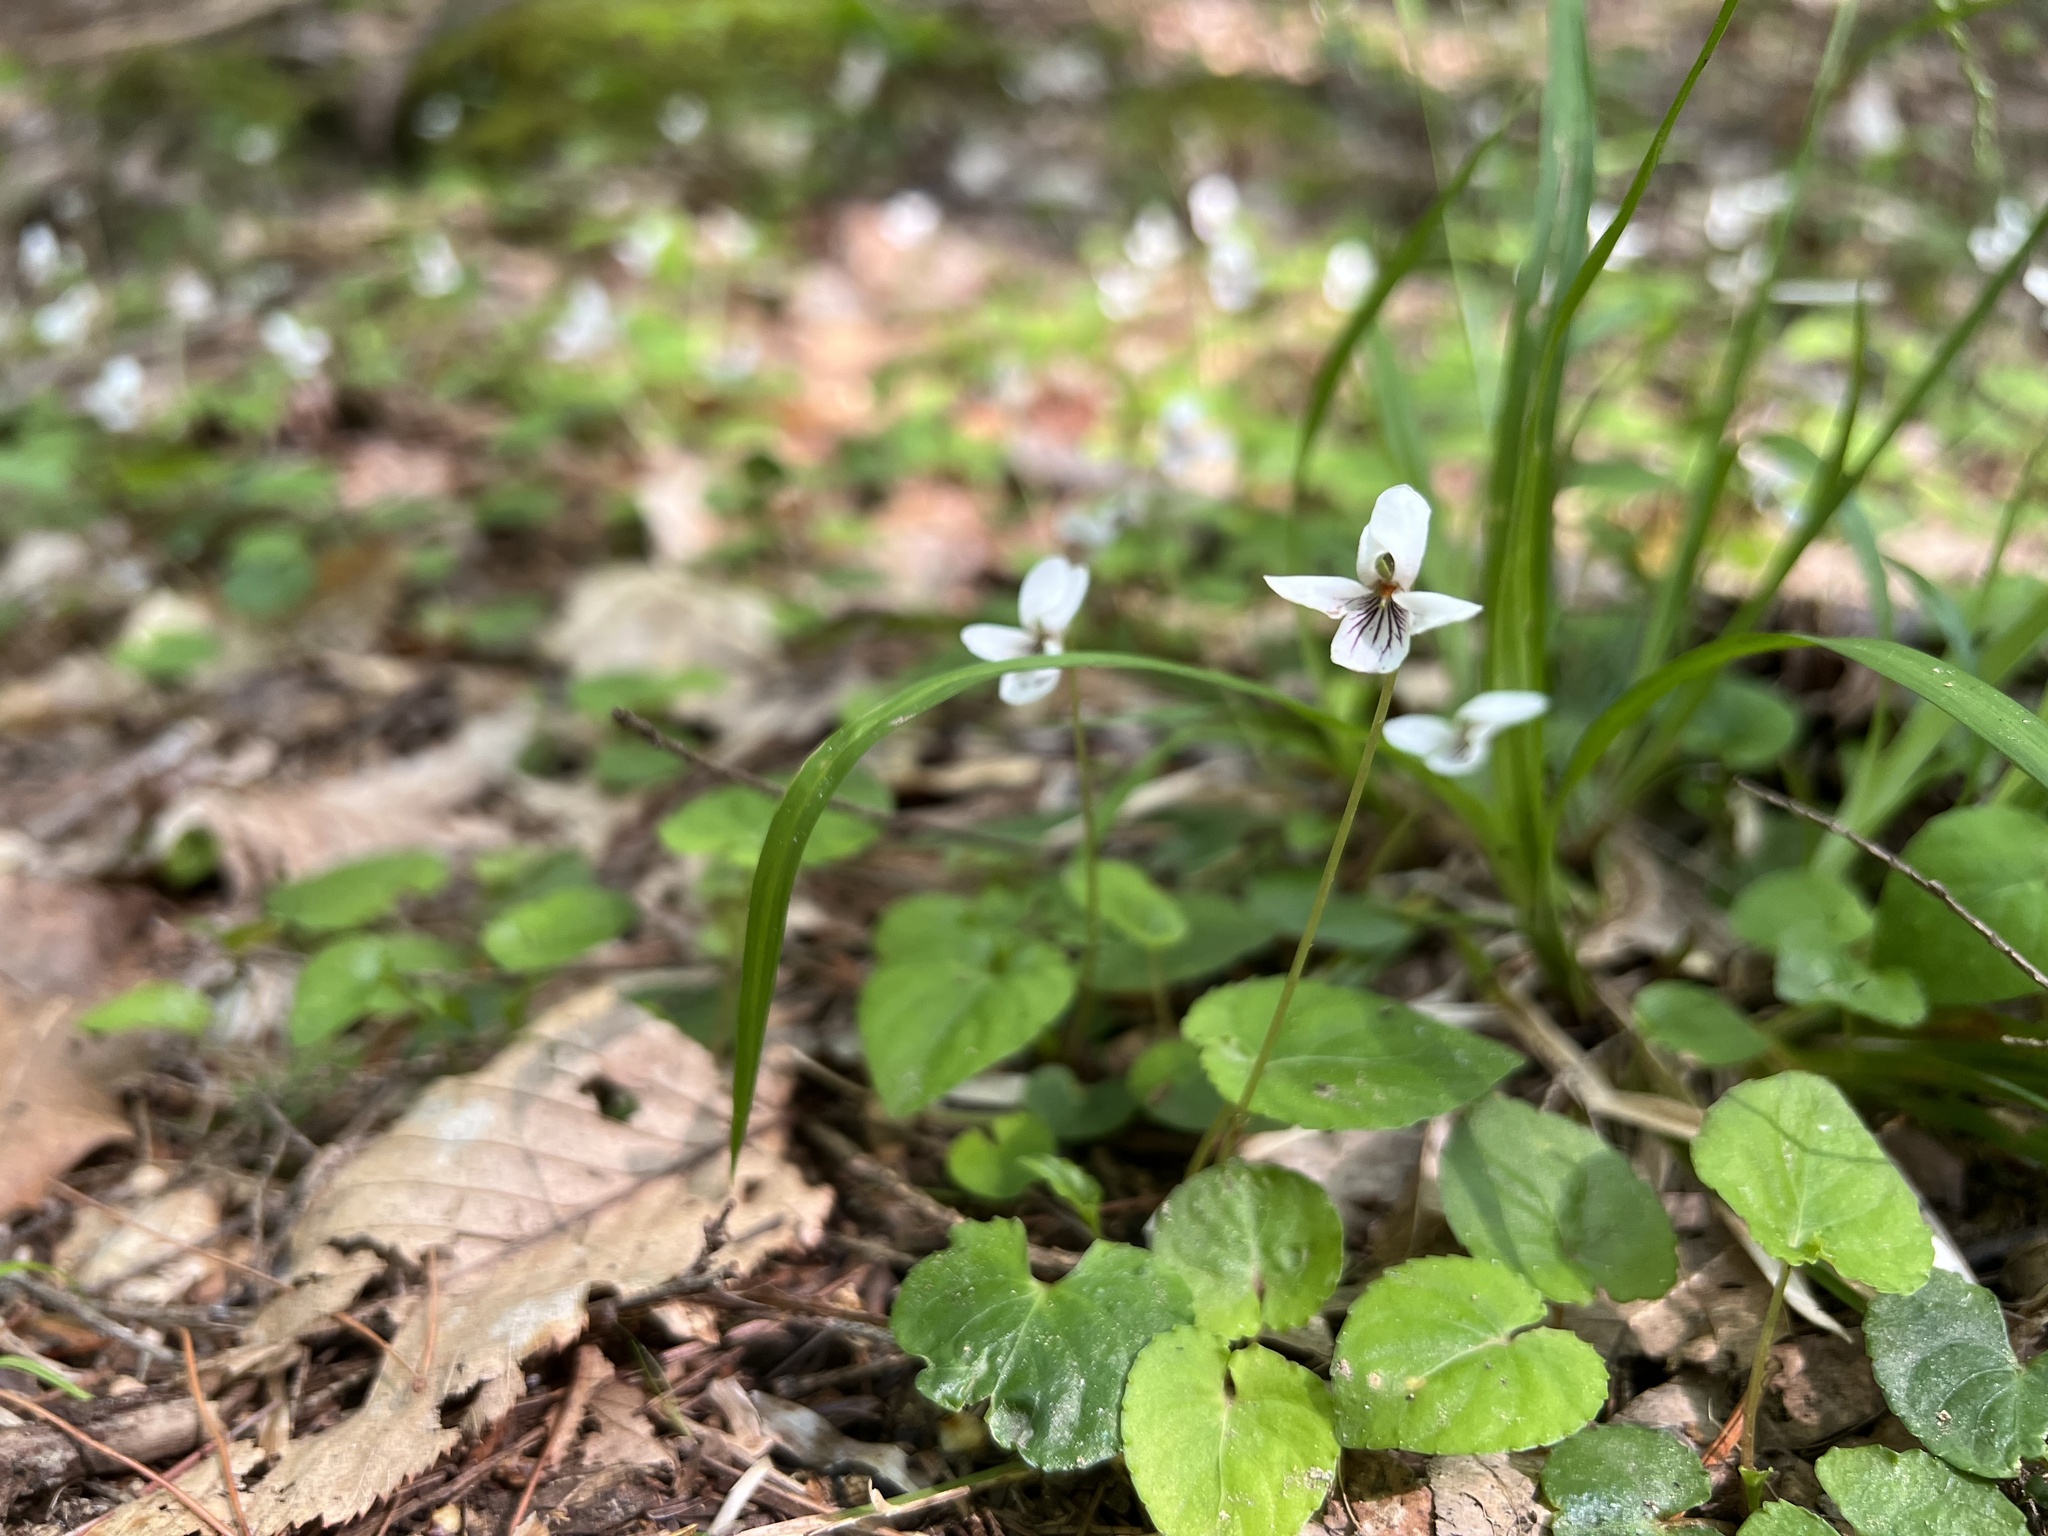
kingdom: Plantae
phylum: Tracheophyta
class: Magnoliopsida
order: Malpighiales
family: Violaceae
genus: Viola
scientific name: Viola blanda
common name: Sweet white violet
